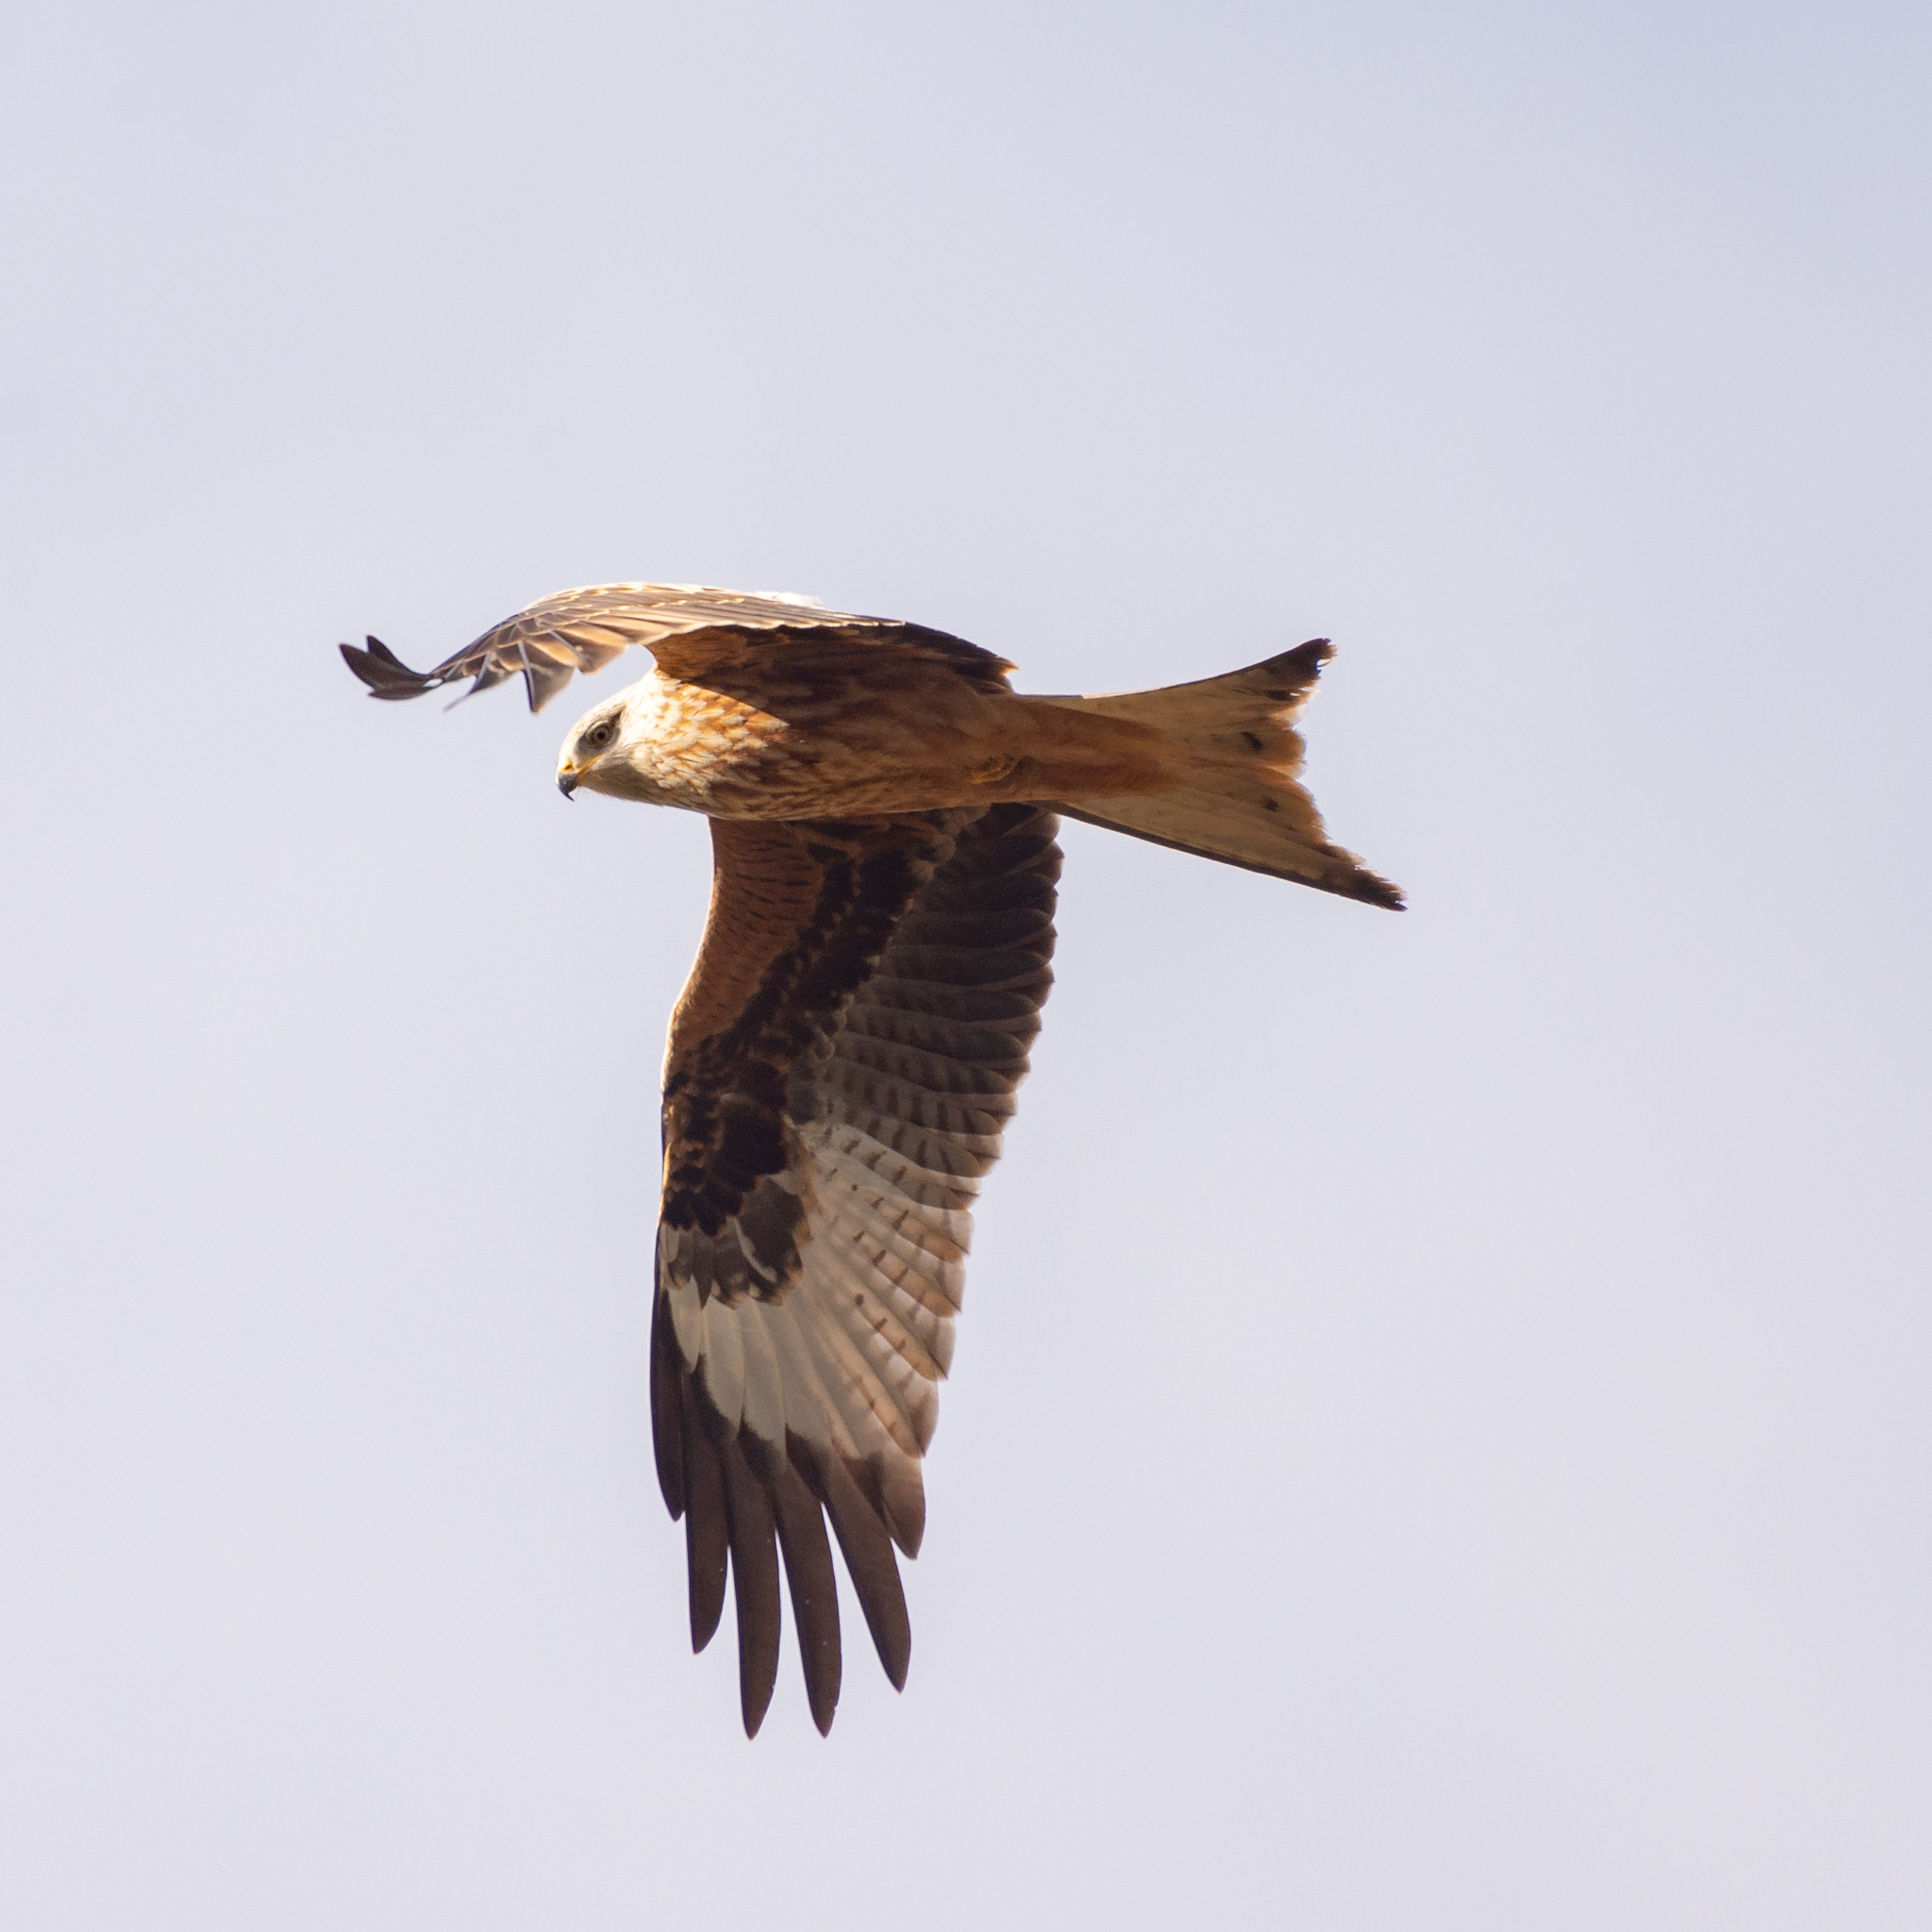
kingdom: Animalia
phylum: Chordata
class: Aves
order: Accipitriformes
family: Accipitridae
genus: Milvus
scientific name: Milvus milvus
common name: Red kite
